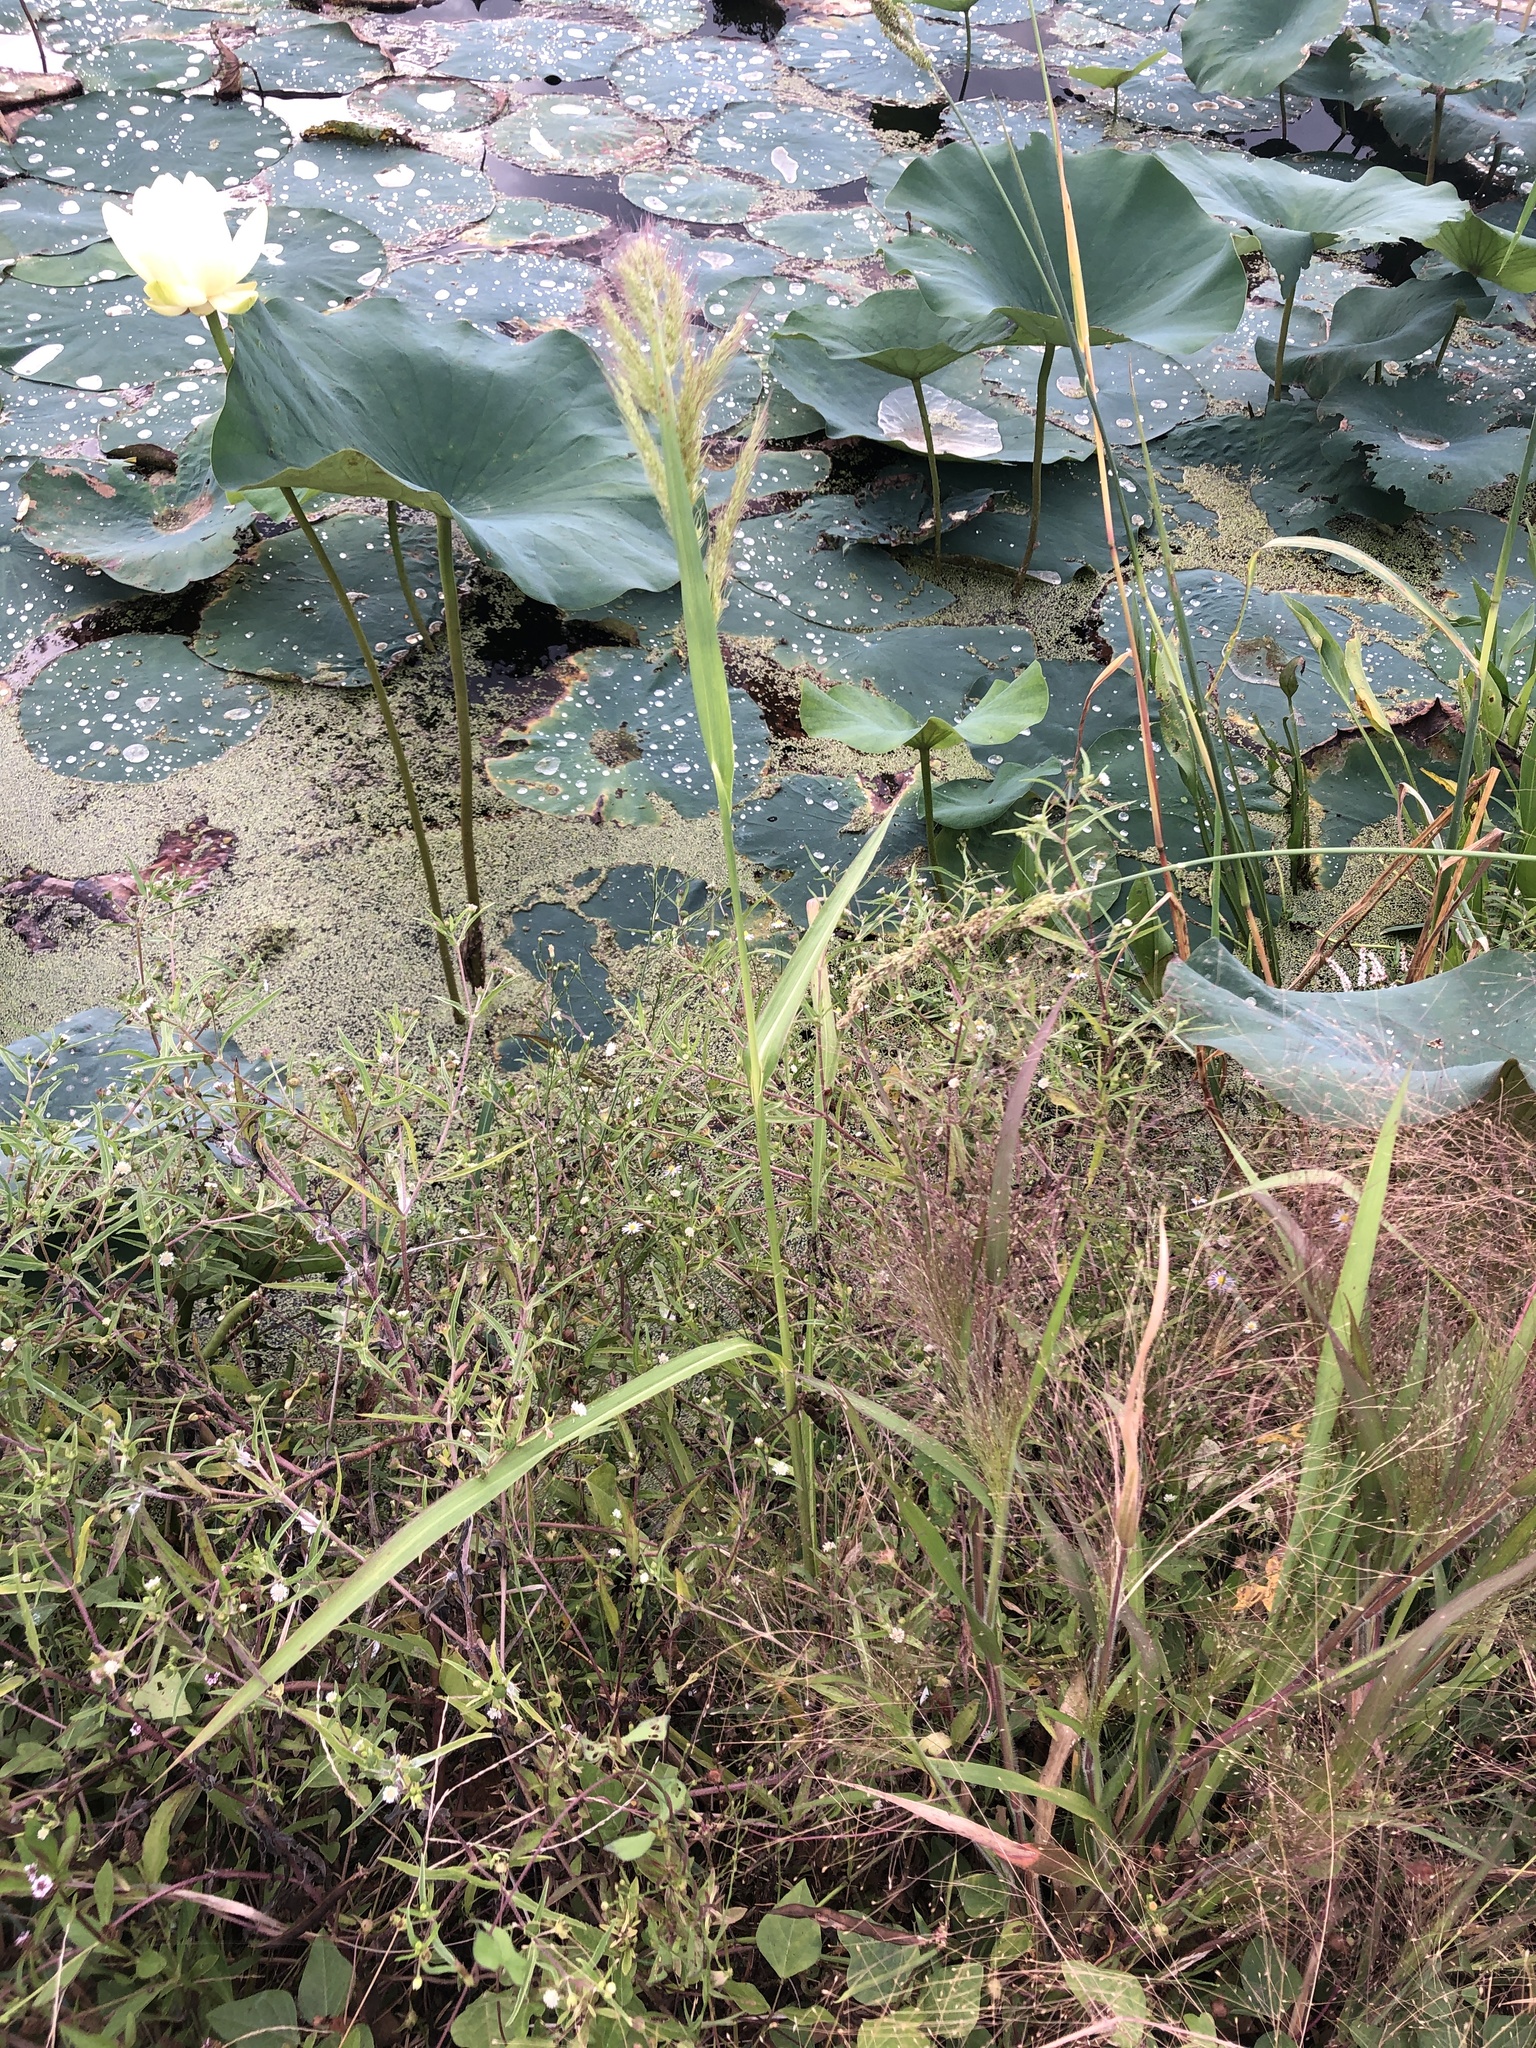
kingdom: Plantae
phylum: Tracheophyta
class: Liliopsida
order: Poales
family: Poaceae
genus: Echinochloa
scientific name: Echinochloa walteri
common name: Coast barnyard grass
